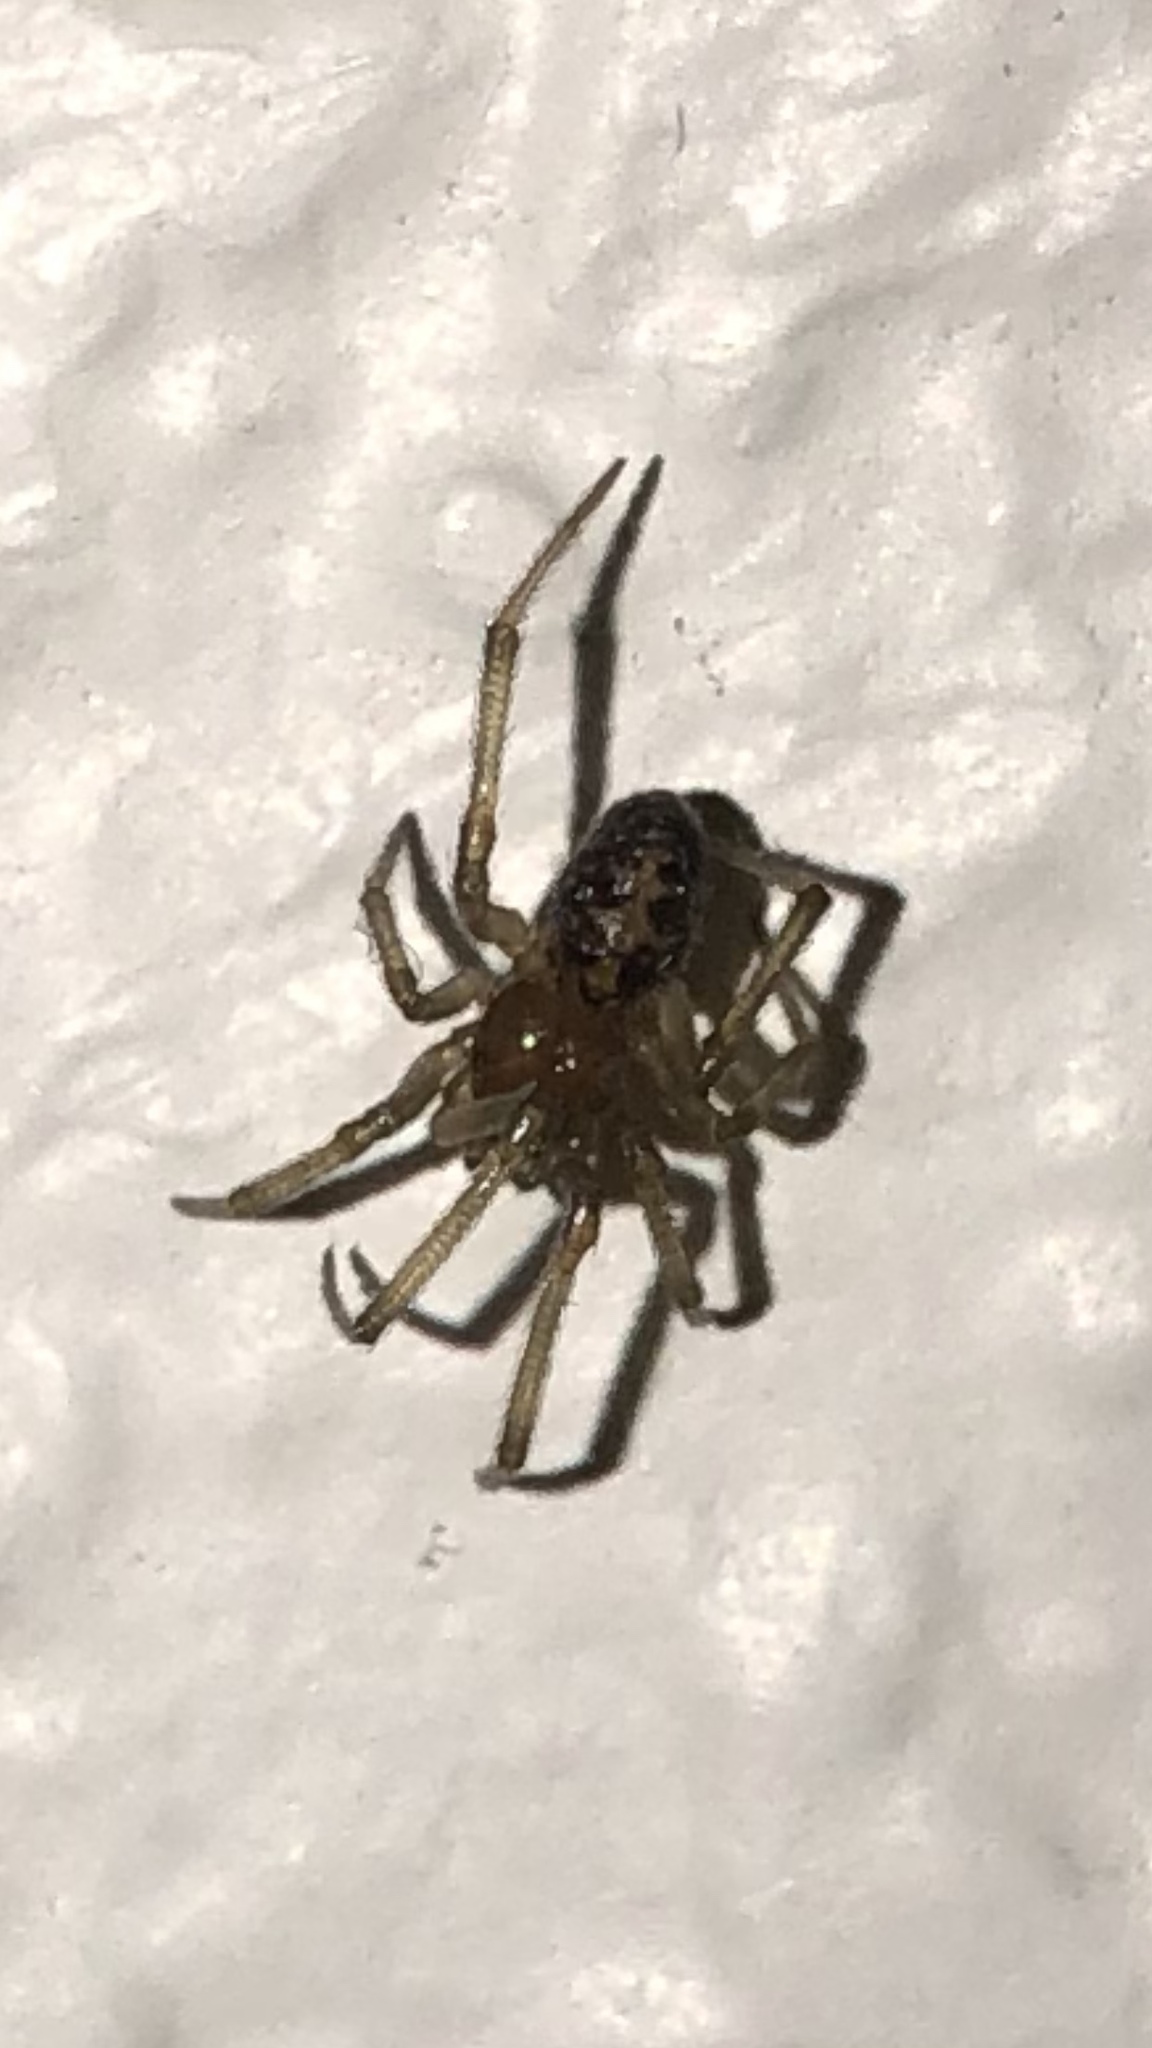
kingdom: Animalia
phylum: Arthropoda
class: Arachnida
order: Araneae
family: Theridiidae
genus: Steatoda
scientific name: Steatoda triangulosa
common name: Triangulate bud spider
